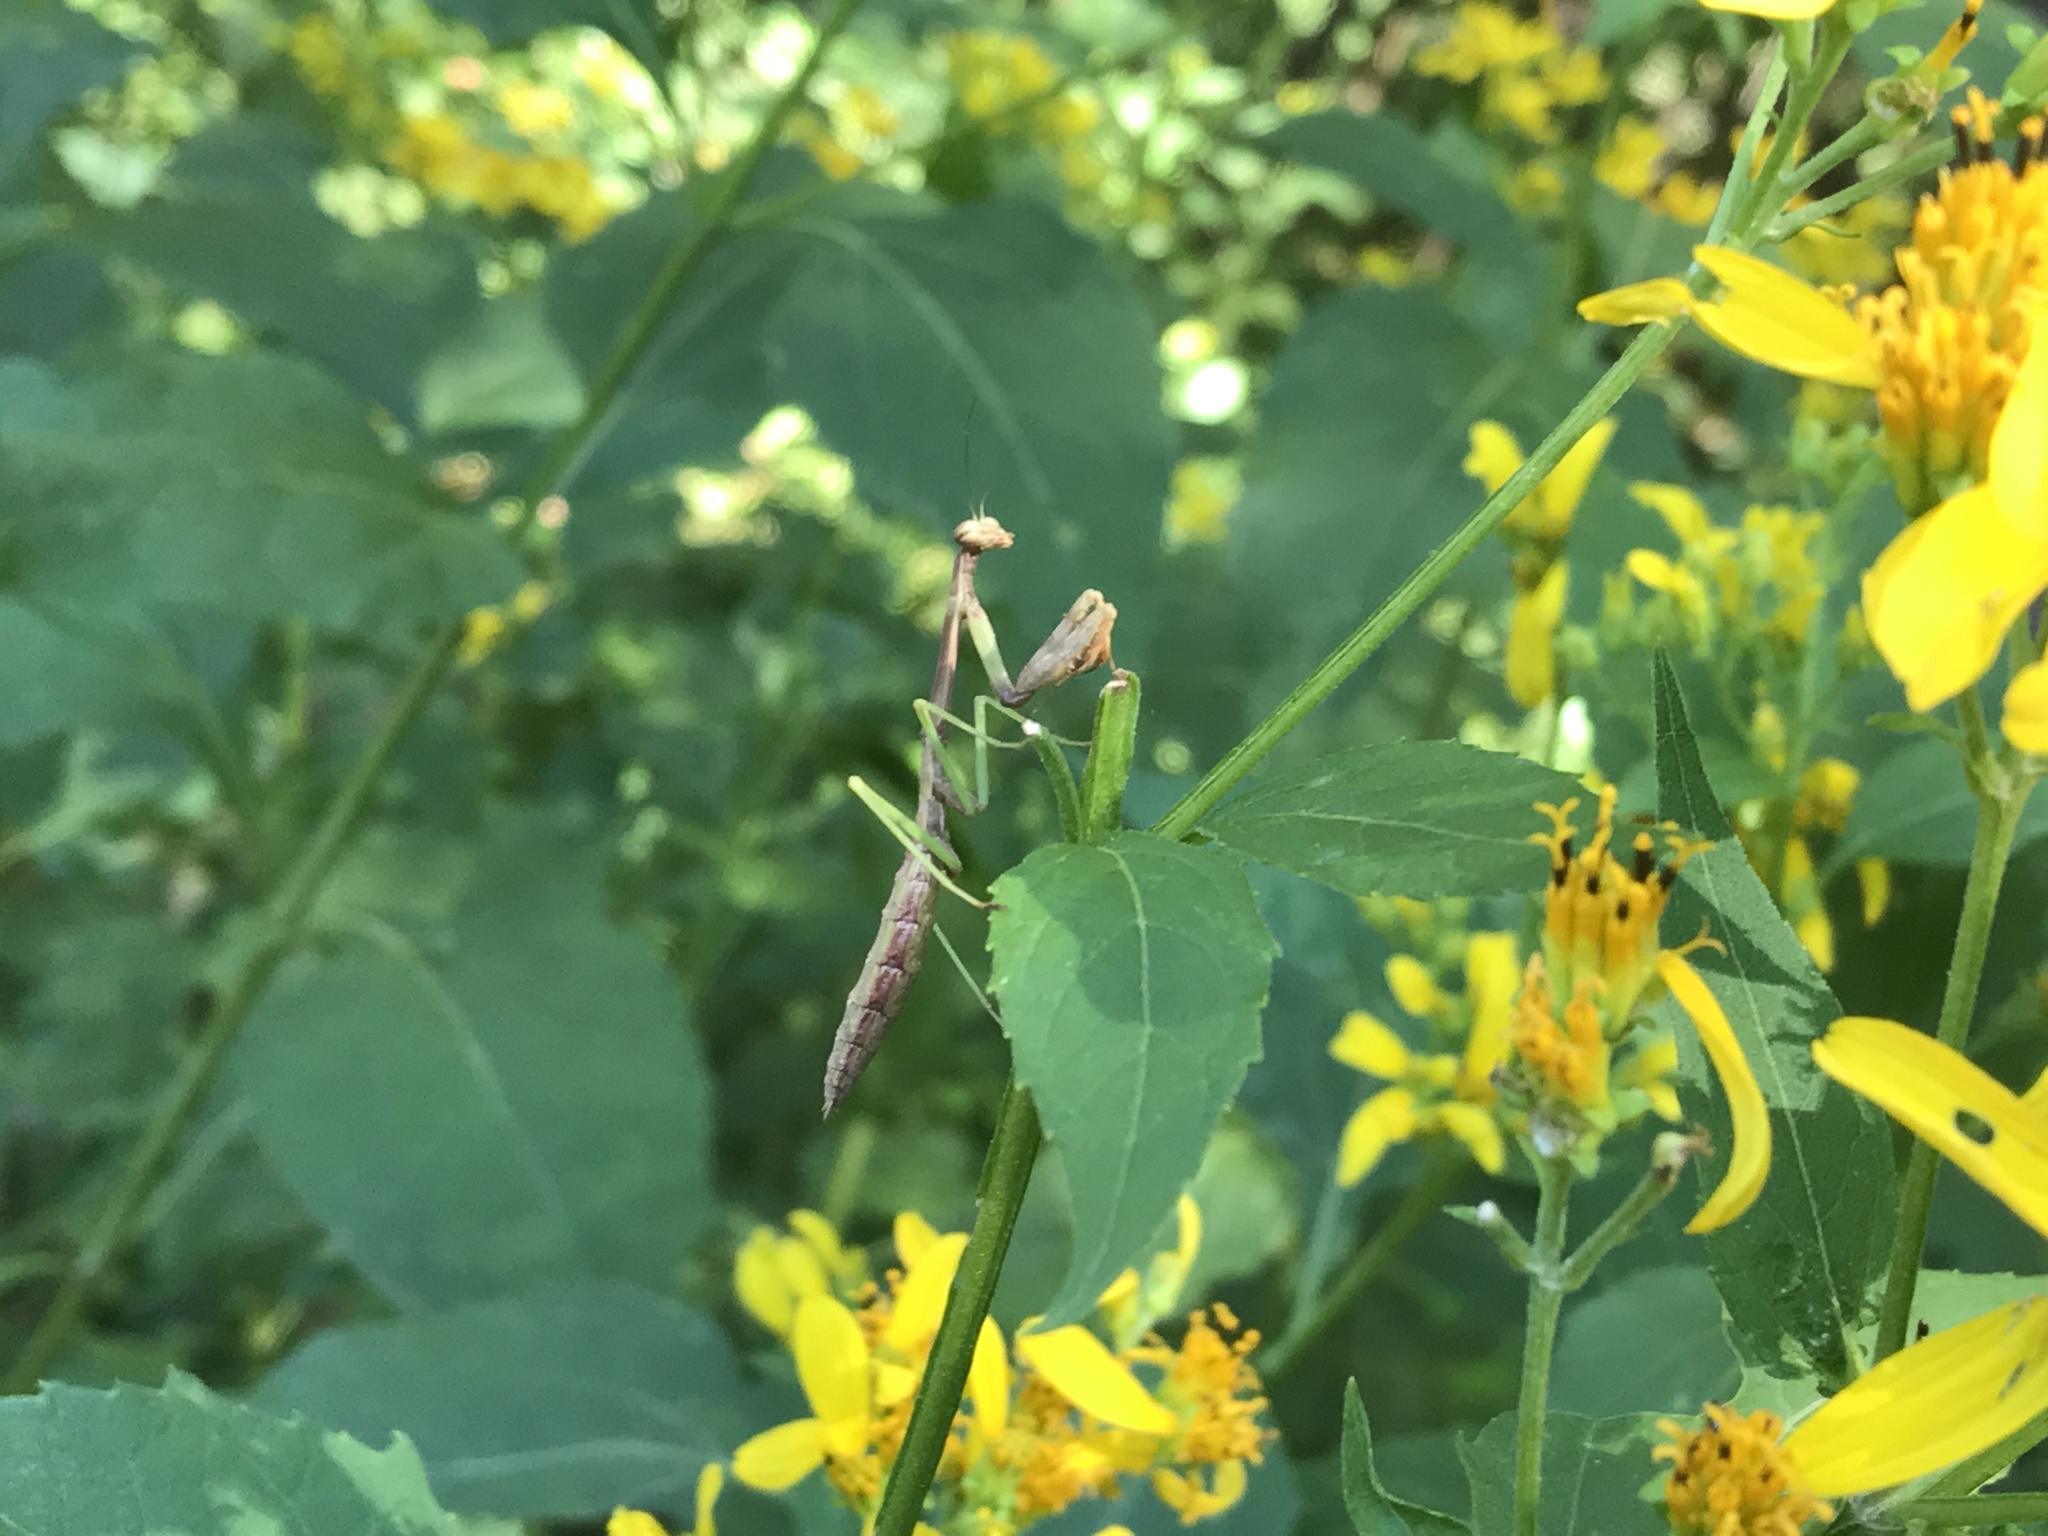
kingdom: Animalia
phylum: Arthropoda
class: Insecta
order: Mantodea
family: Mantidae
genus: Stagmomantis
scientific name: Stagmomantis carolina
